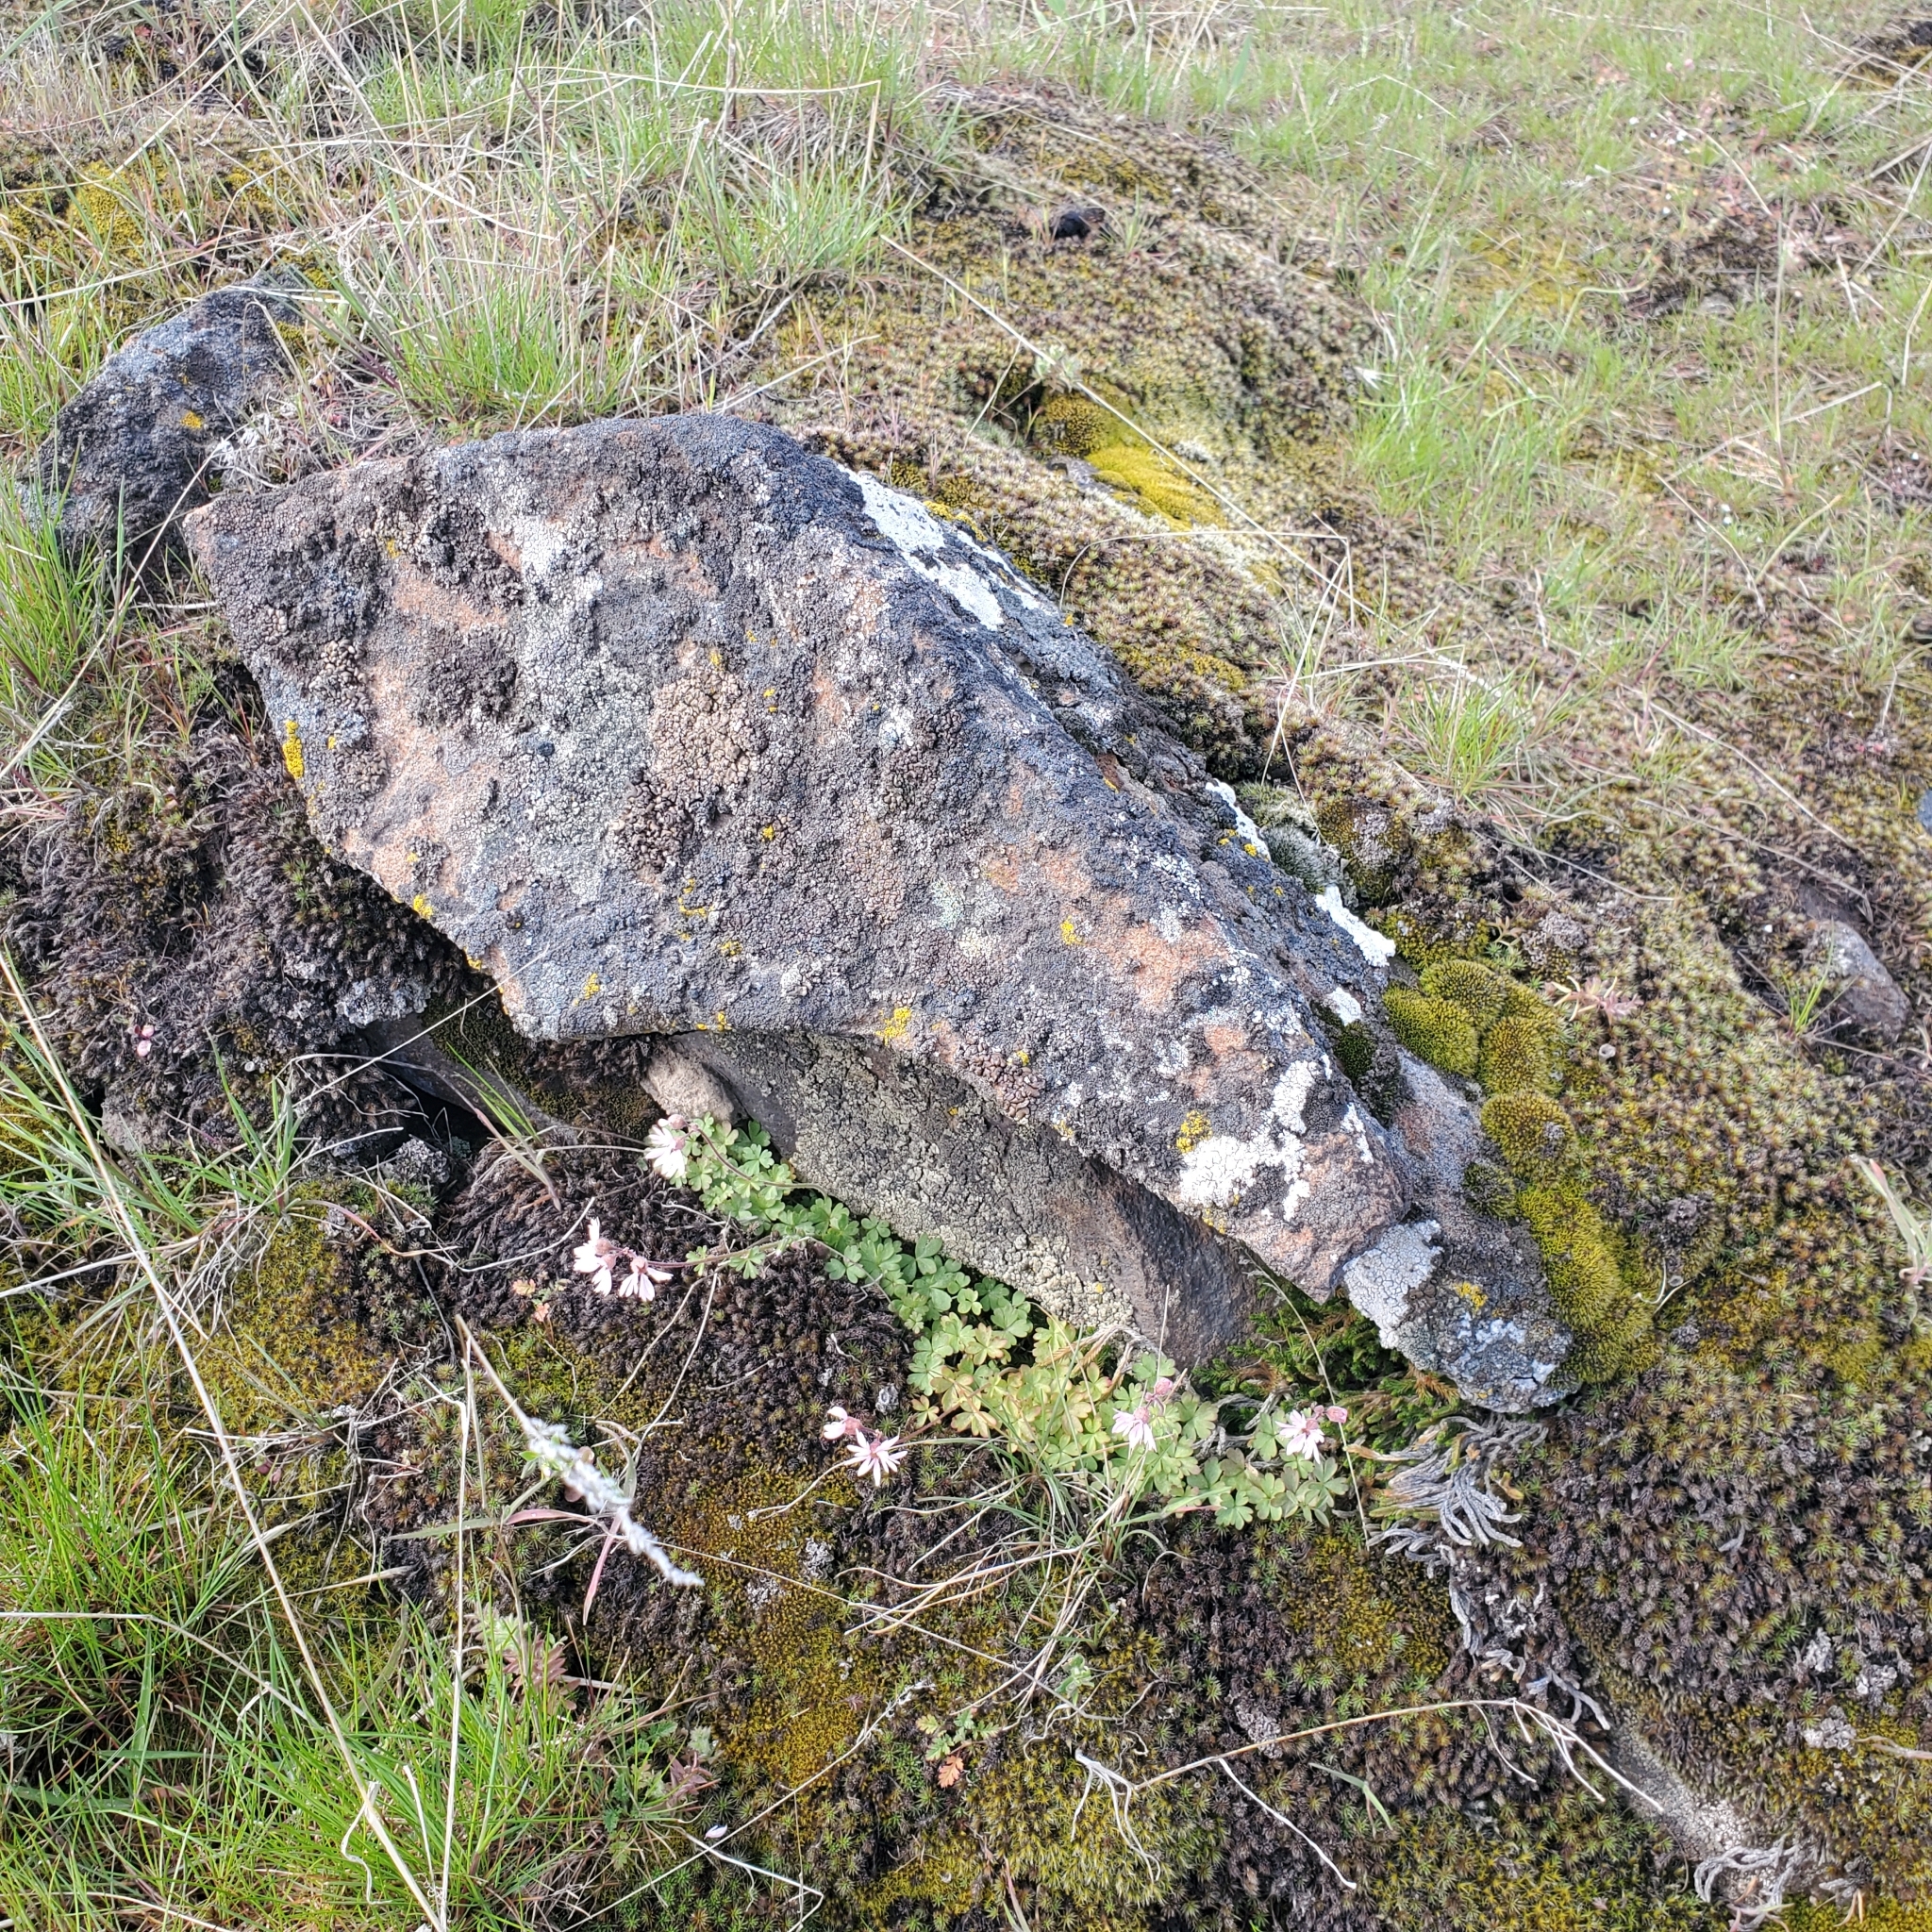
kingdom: Plantae
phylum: Tracheophyta
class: Magnoliopsida
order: Saxifragales
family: Saxifragaceae
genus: Lithophragma
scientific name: Lithophragma glabrum
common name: Bulbous prairie-star
